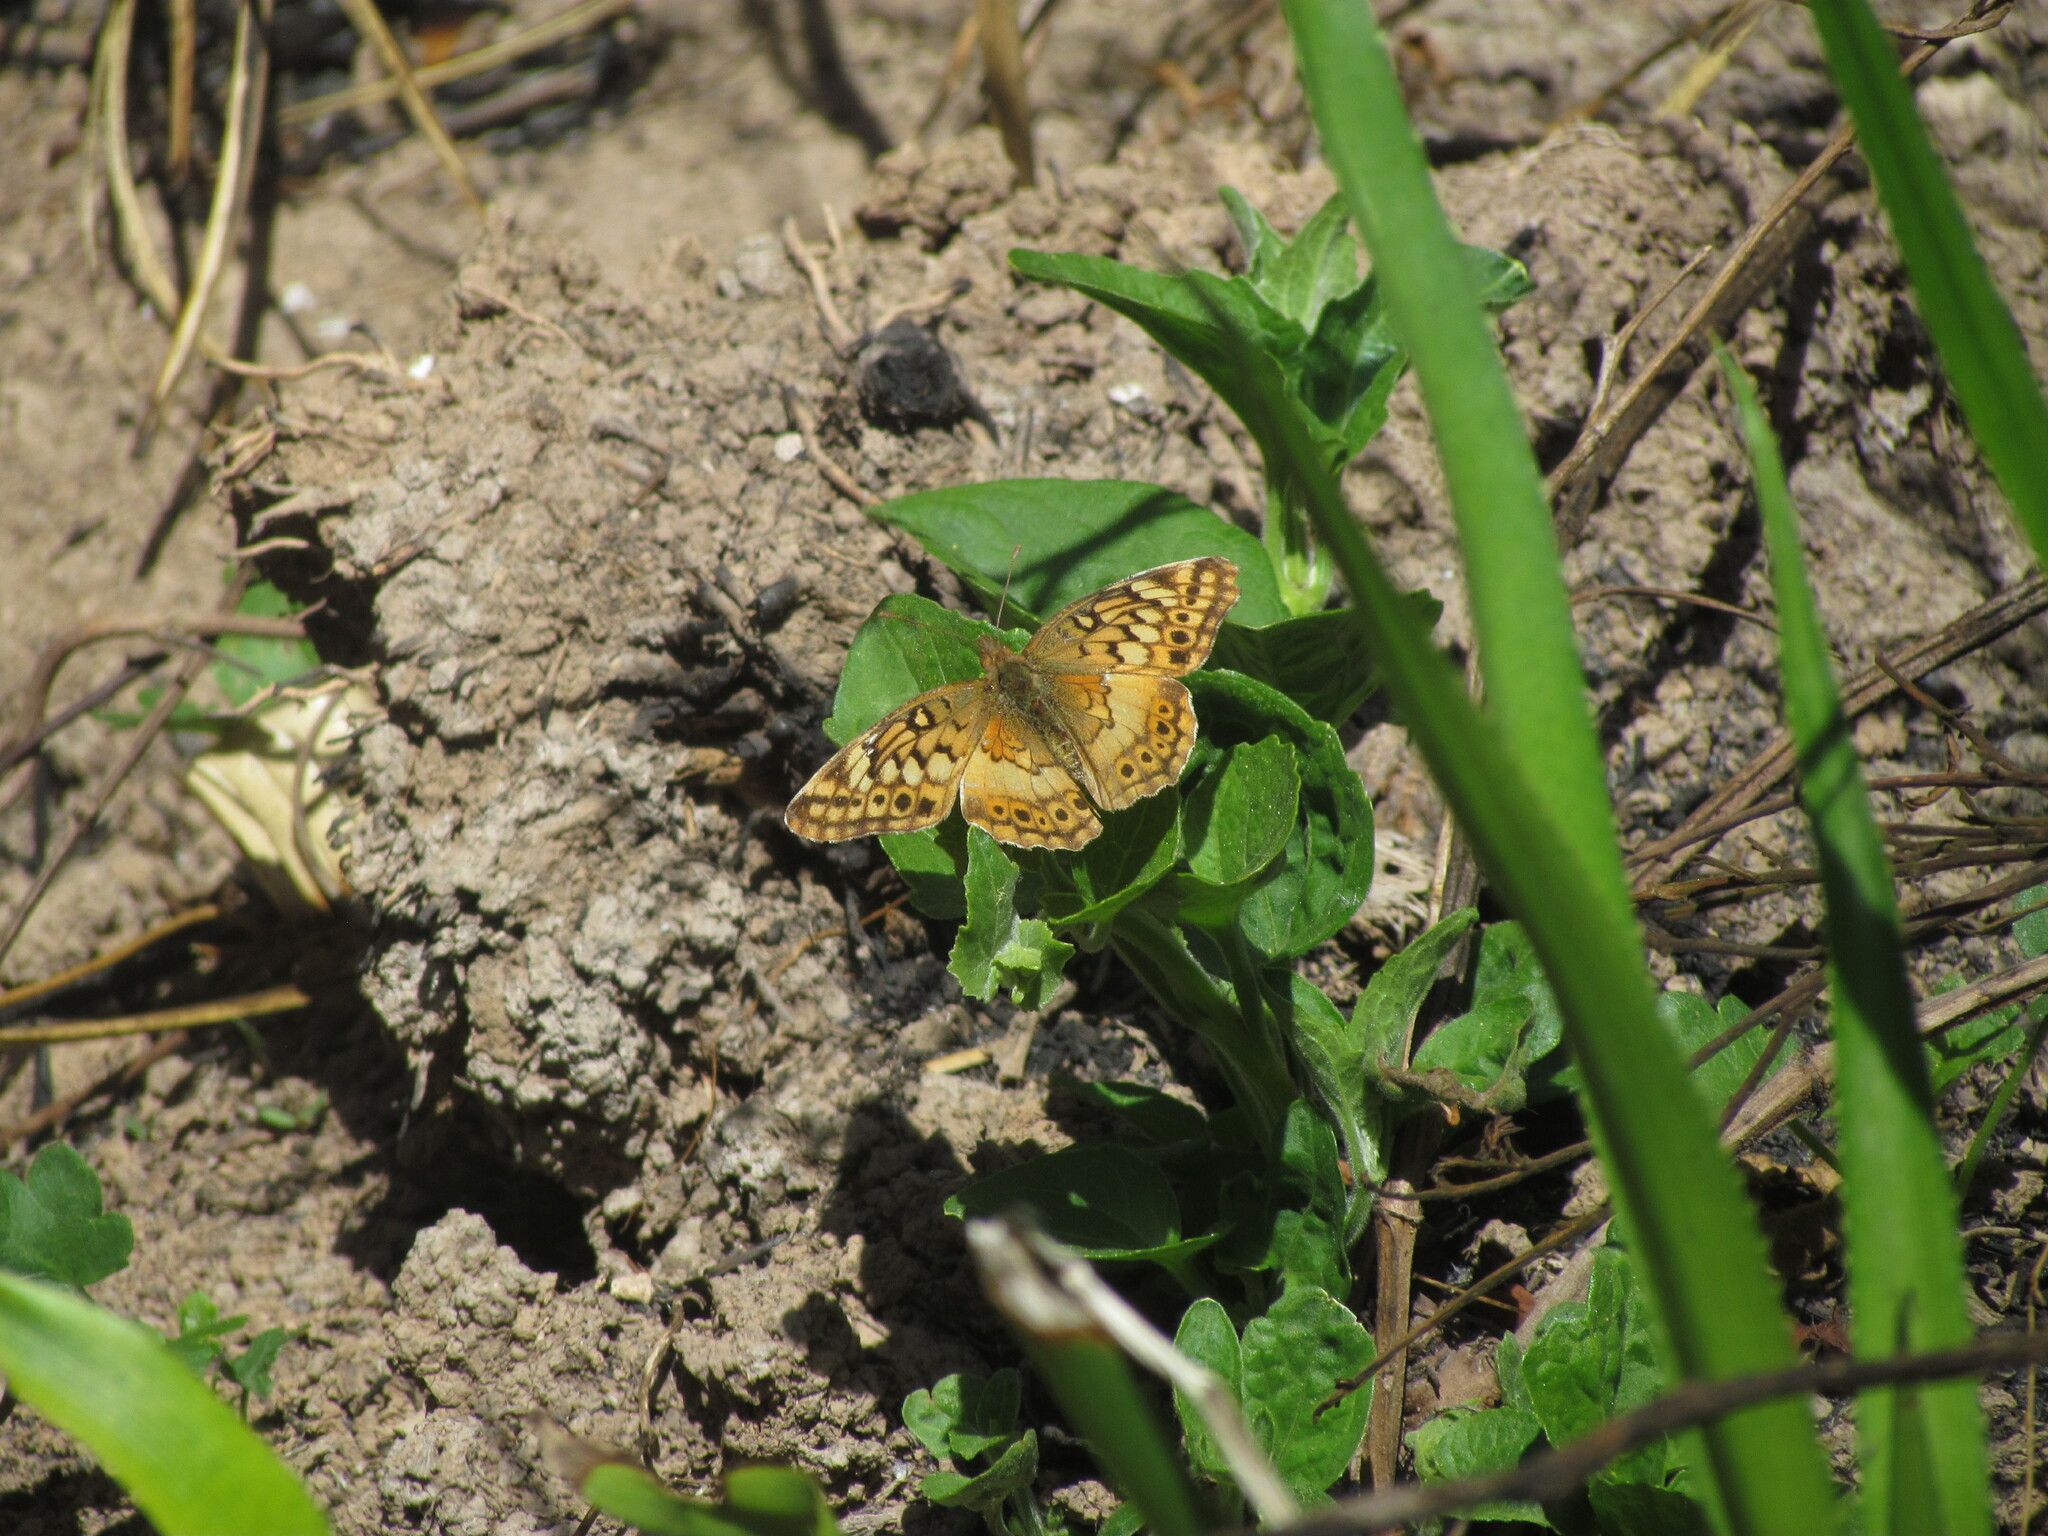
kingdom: Animalia
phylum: Arthropoda
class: Insecta
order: Lepidoptera
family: Nymphalidae
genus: Euptoieta
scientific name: Euptoieta hortensia
